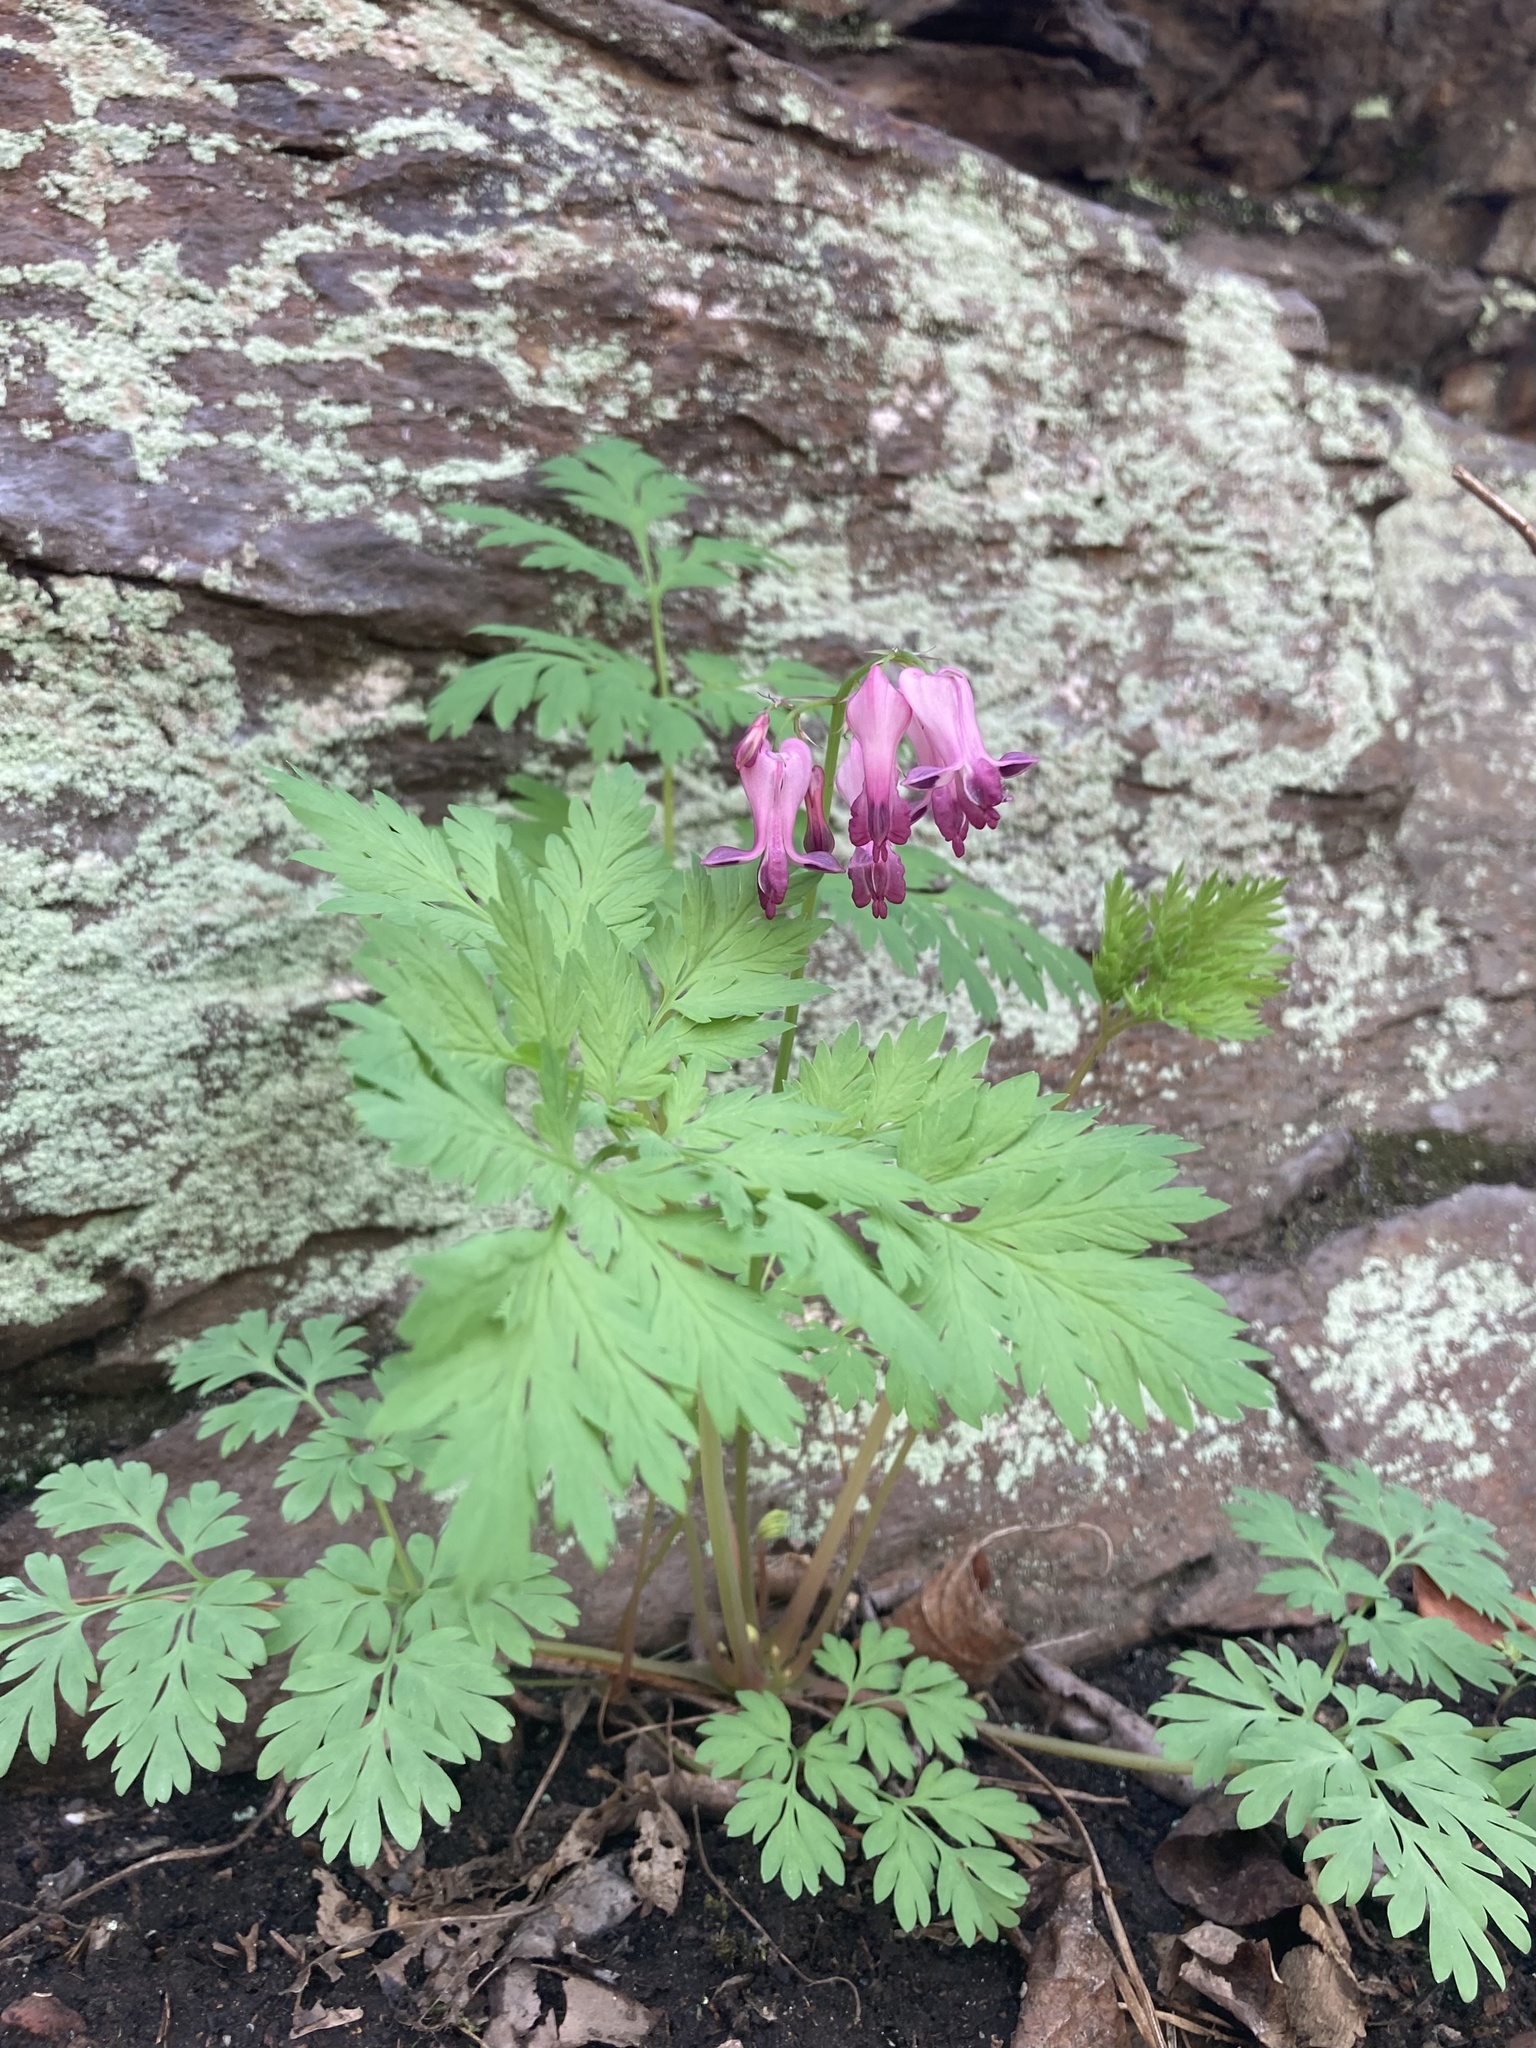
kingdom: Plantae
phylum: Tracheophyta
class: Magnoliopsida
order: Ranunculales
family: Papaveraceae
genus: Dicentra
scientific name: Dicentra eximia
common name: Turkey-corn
